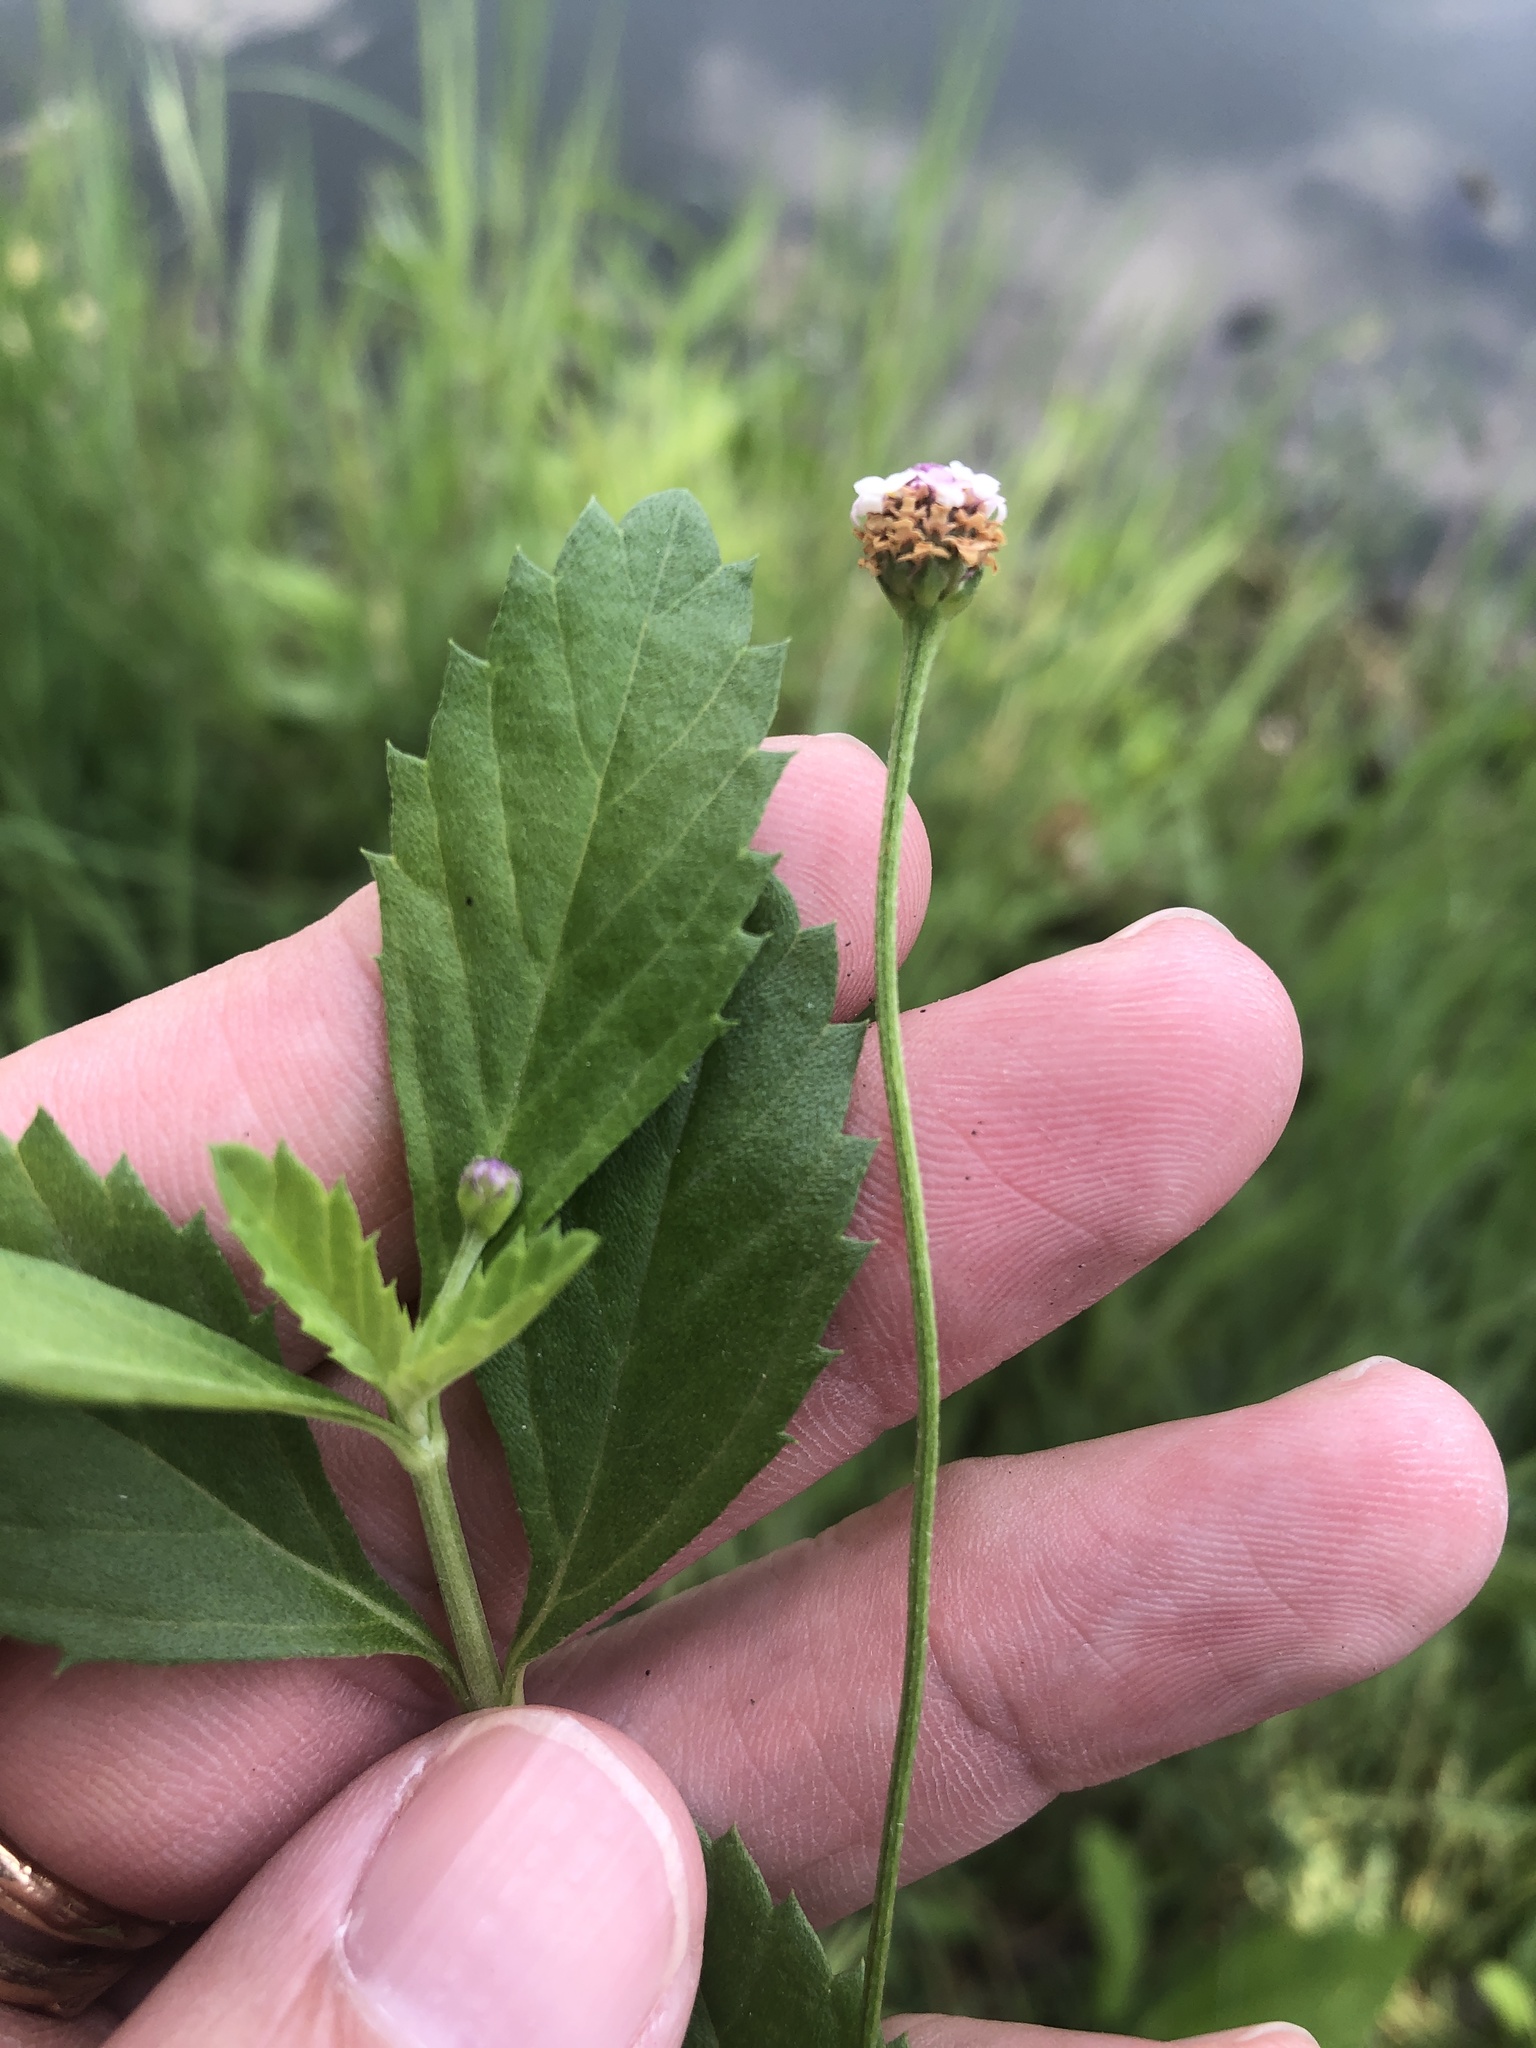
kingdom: Plantae
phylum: Tracheophyta
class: Magnoliopsida
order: Lamiales
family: Verbenaceae
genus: Phyla
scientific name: Phyla lanceolata
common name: Northern fogfruit
